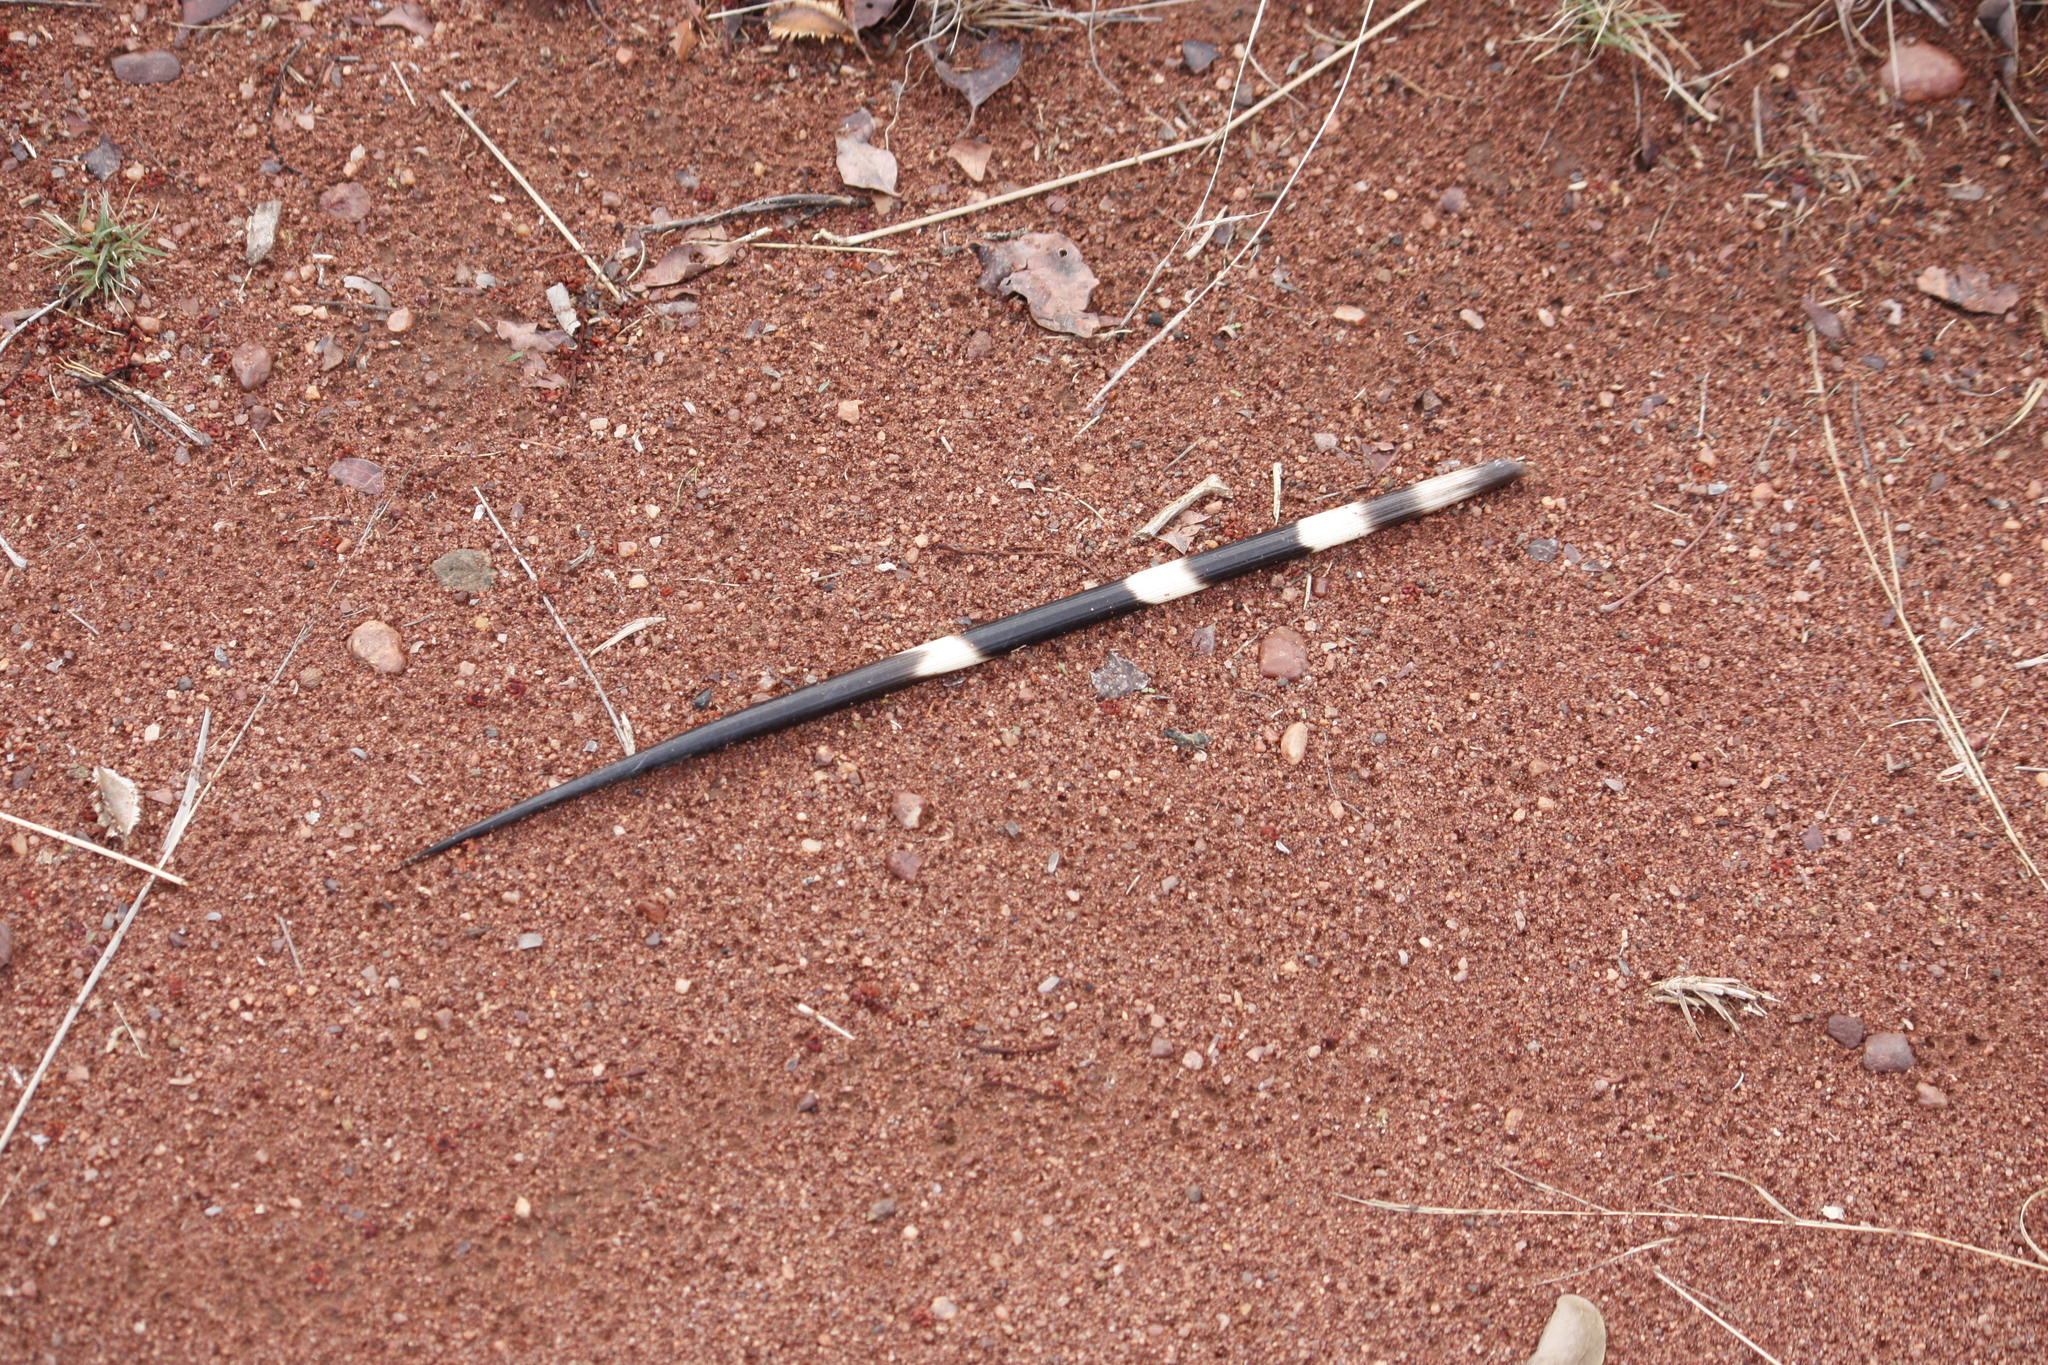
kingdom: Animalia
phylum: Chordata
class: Mammalia
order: Rodentia
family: Hystricidae
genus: Hystrix
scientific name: Hystrix africaeaustralis
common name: Cape porcupine
